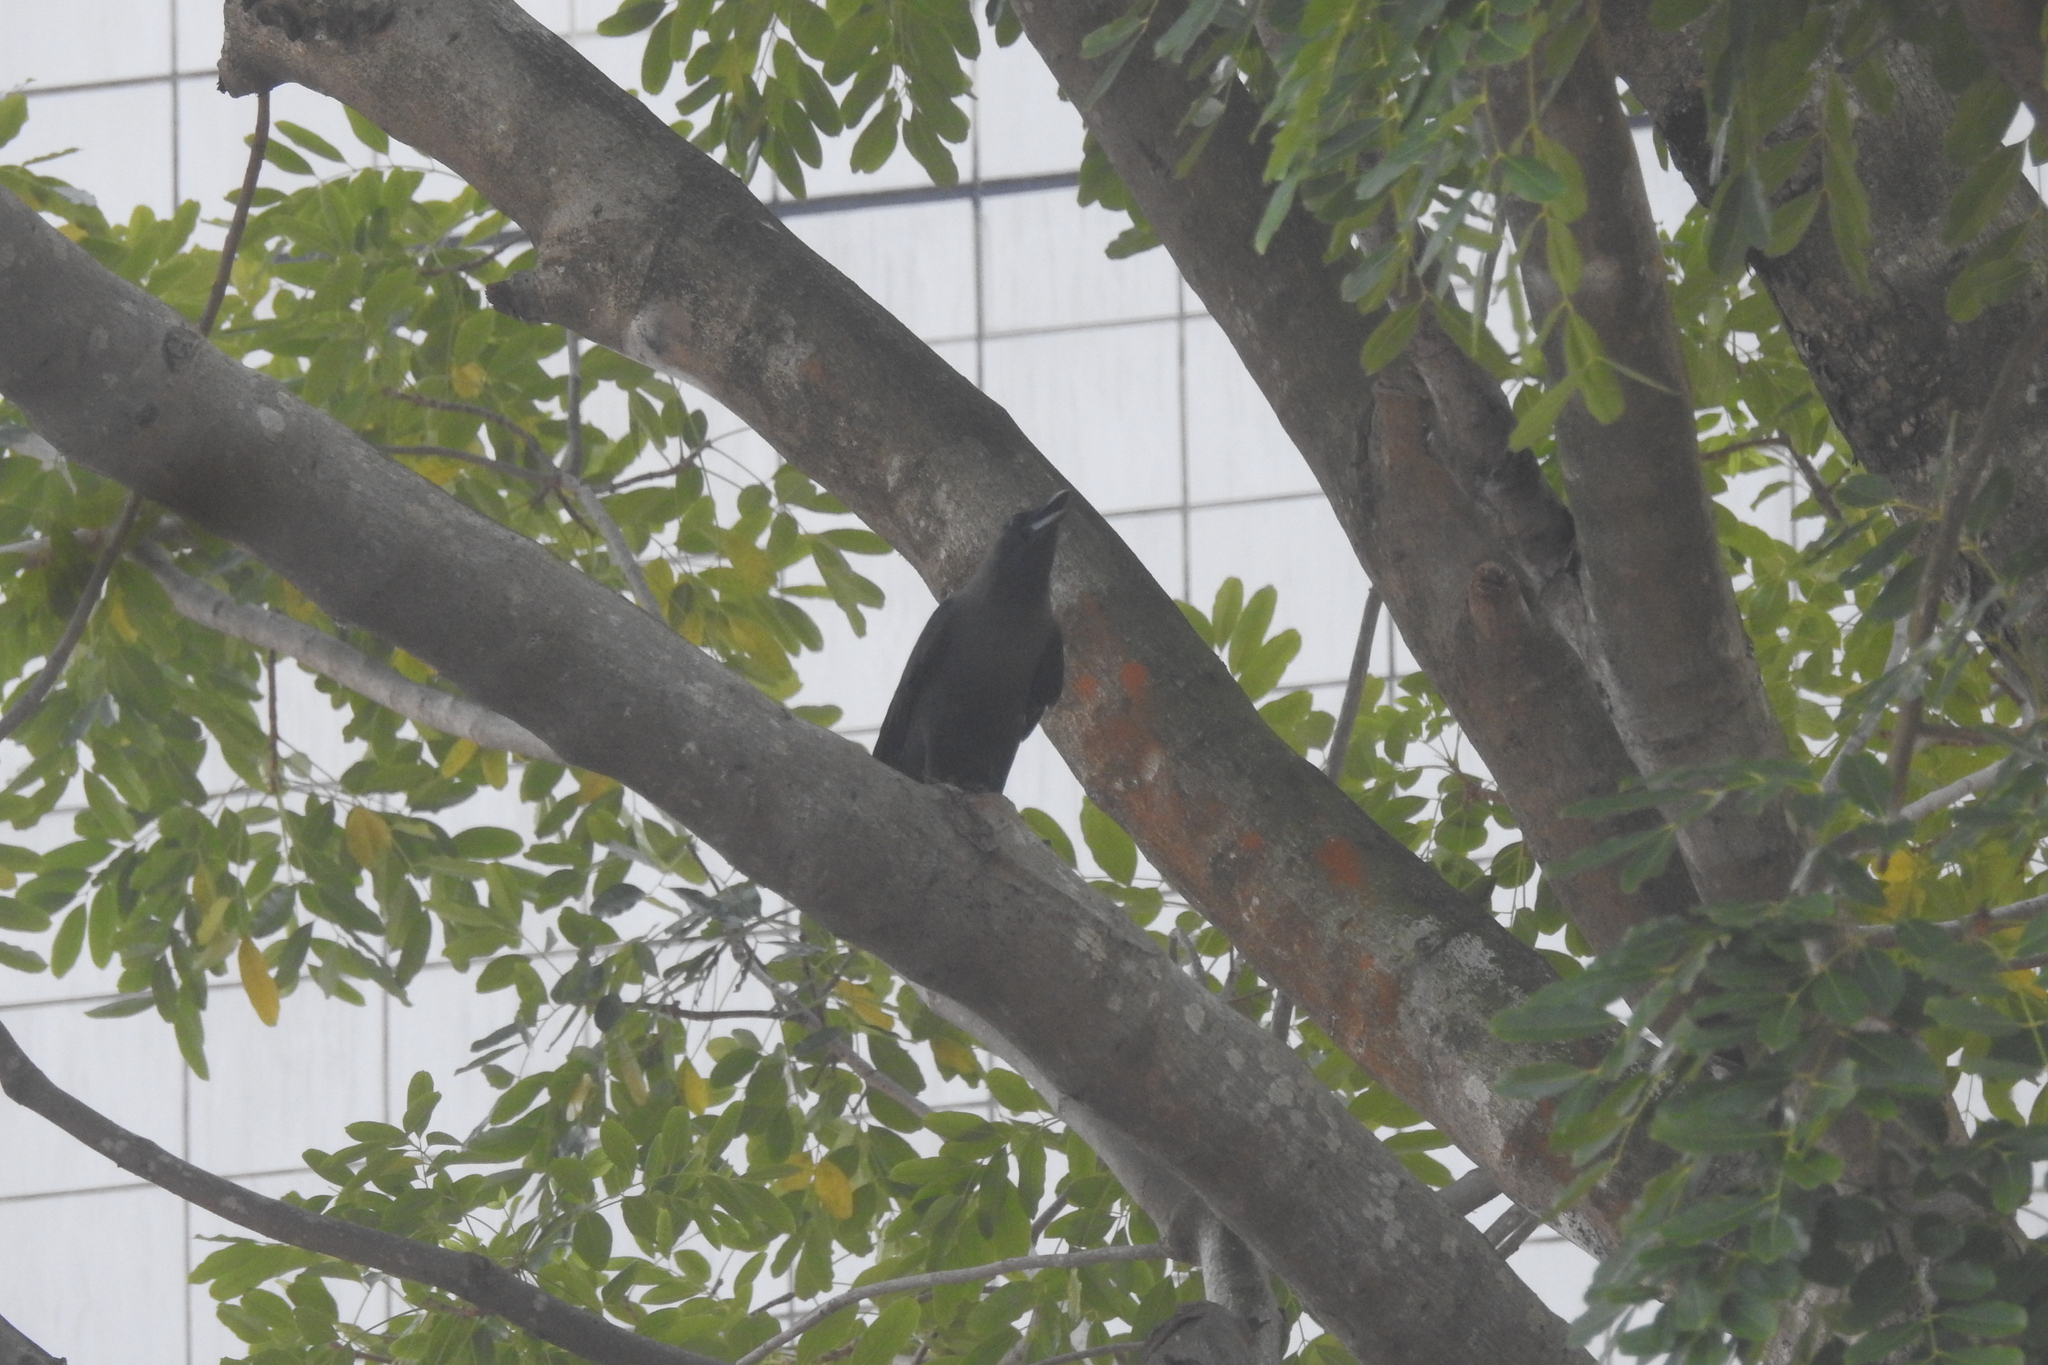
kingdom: Animalia
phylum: Chordata
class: Aves
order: Passeriformes
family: Corvidae
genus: Corvus
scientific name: Corvus splendens
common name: House crow
